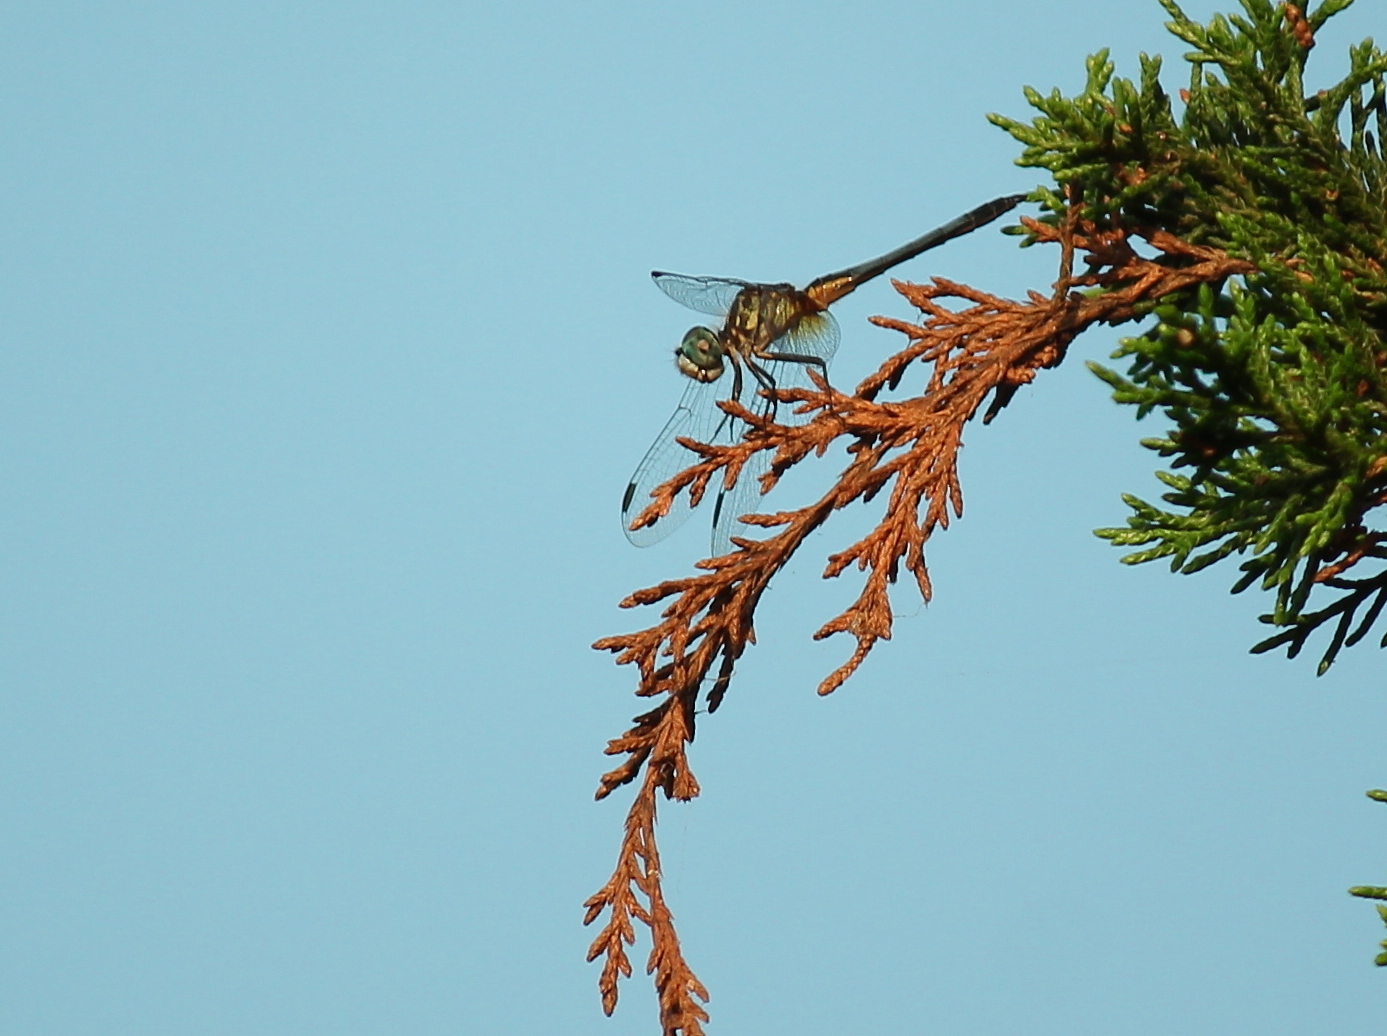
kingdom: Animalia
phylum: Arthropoda
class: Insecta
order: Odonata
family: Libellulidae
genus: Pachydiplax
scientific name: Pachydiplax longipennis
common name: Blue dasher
